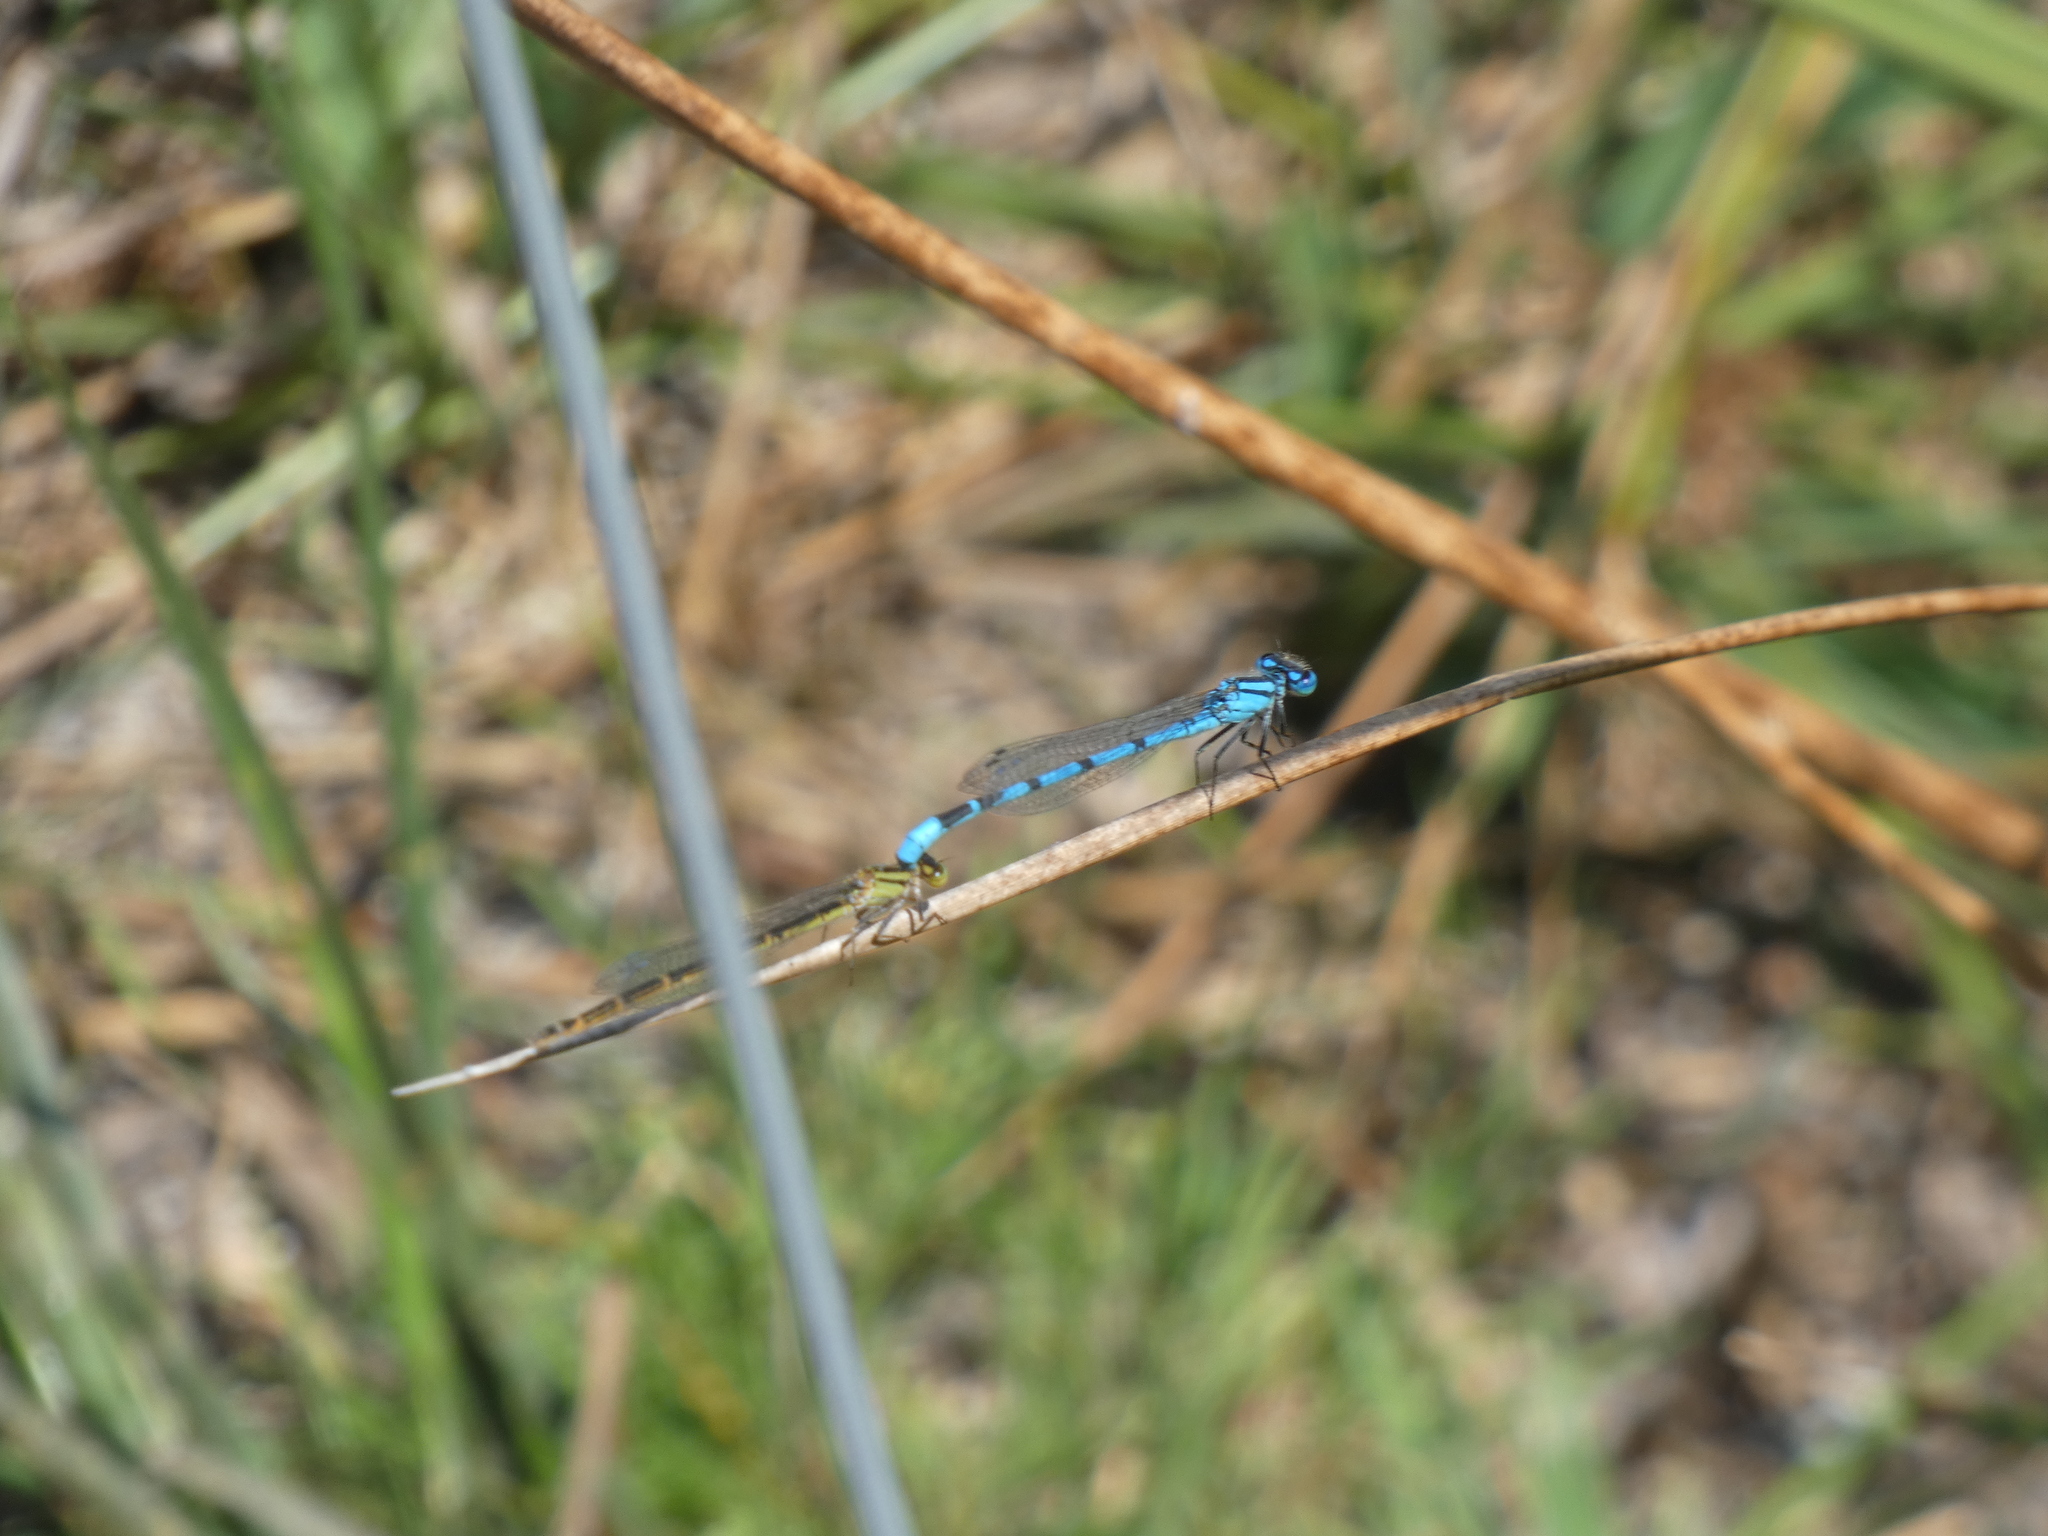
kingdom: Animalia
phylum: Arthropoda
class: Insecta
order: Odonata
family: Coenagrionidae
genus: Enallagma
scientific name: Enallagma cyathigerum
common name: Common blue damselfly
